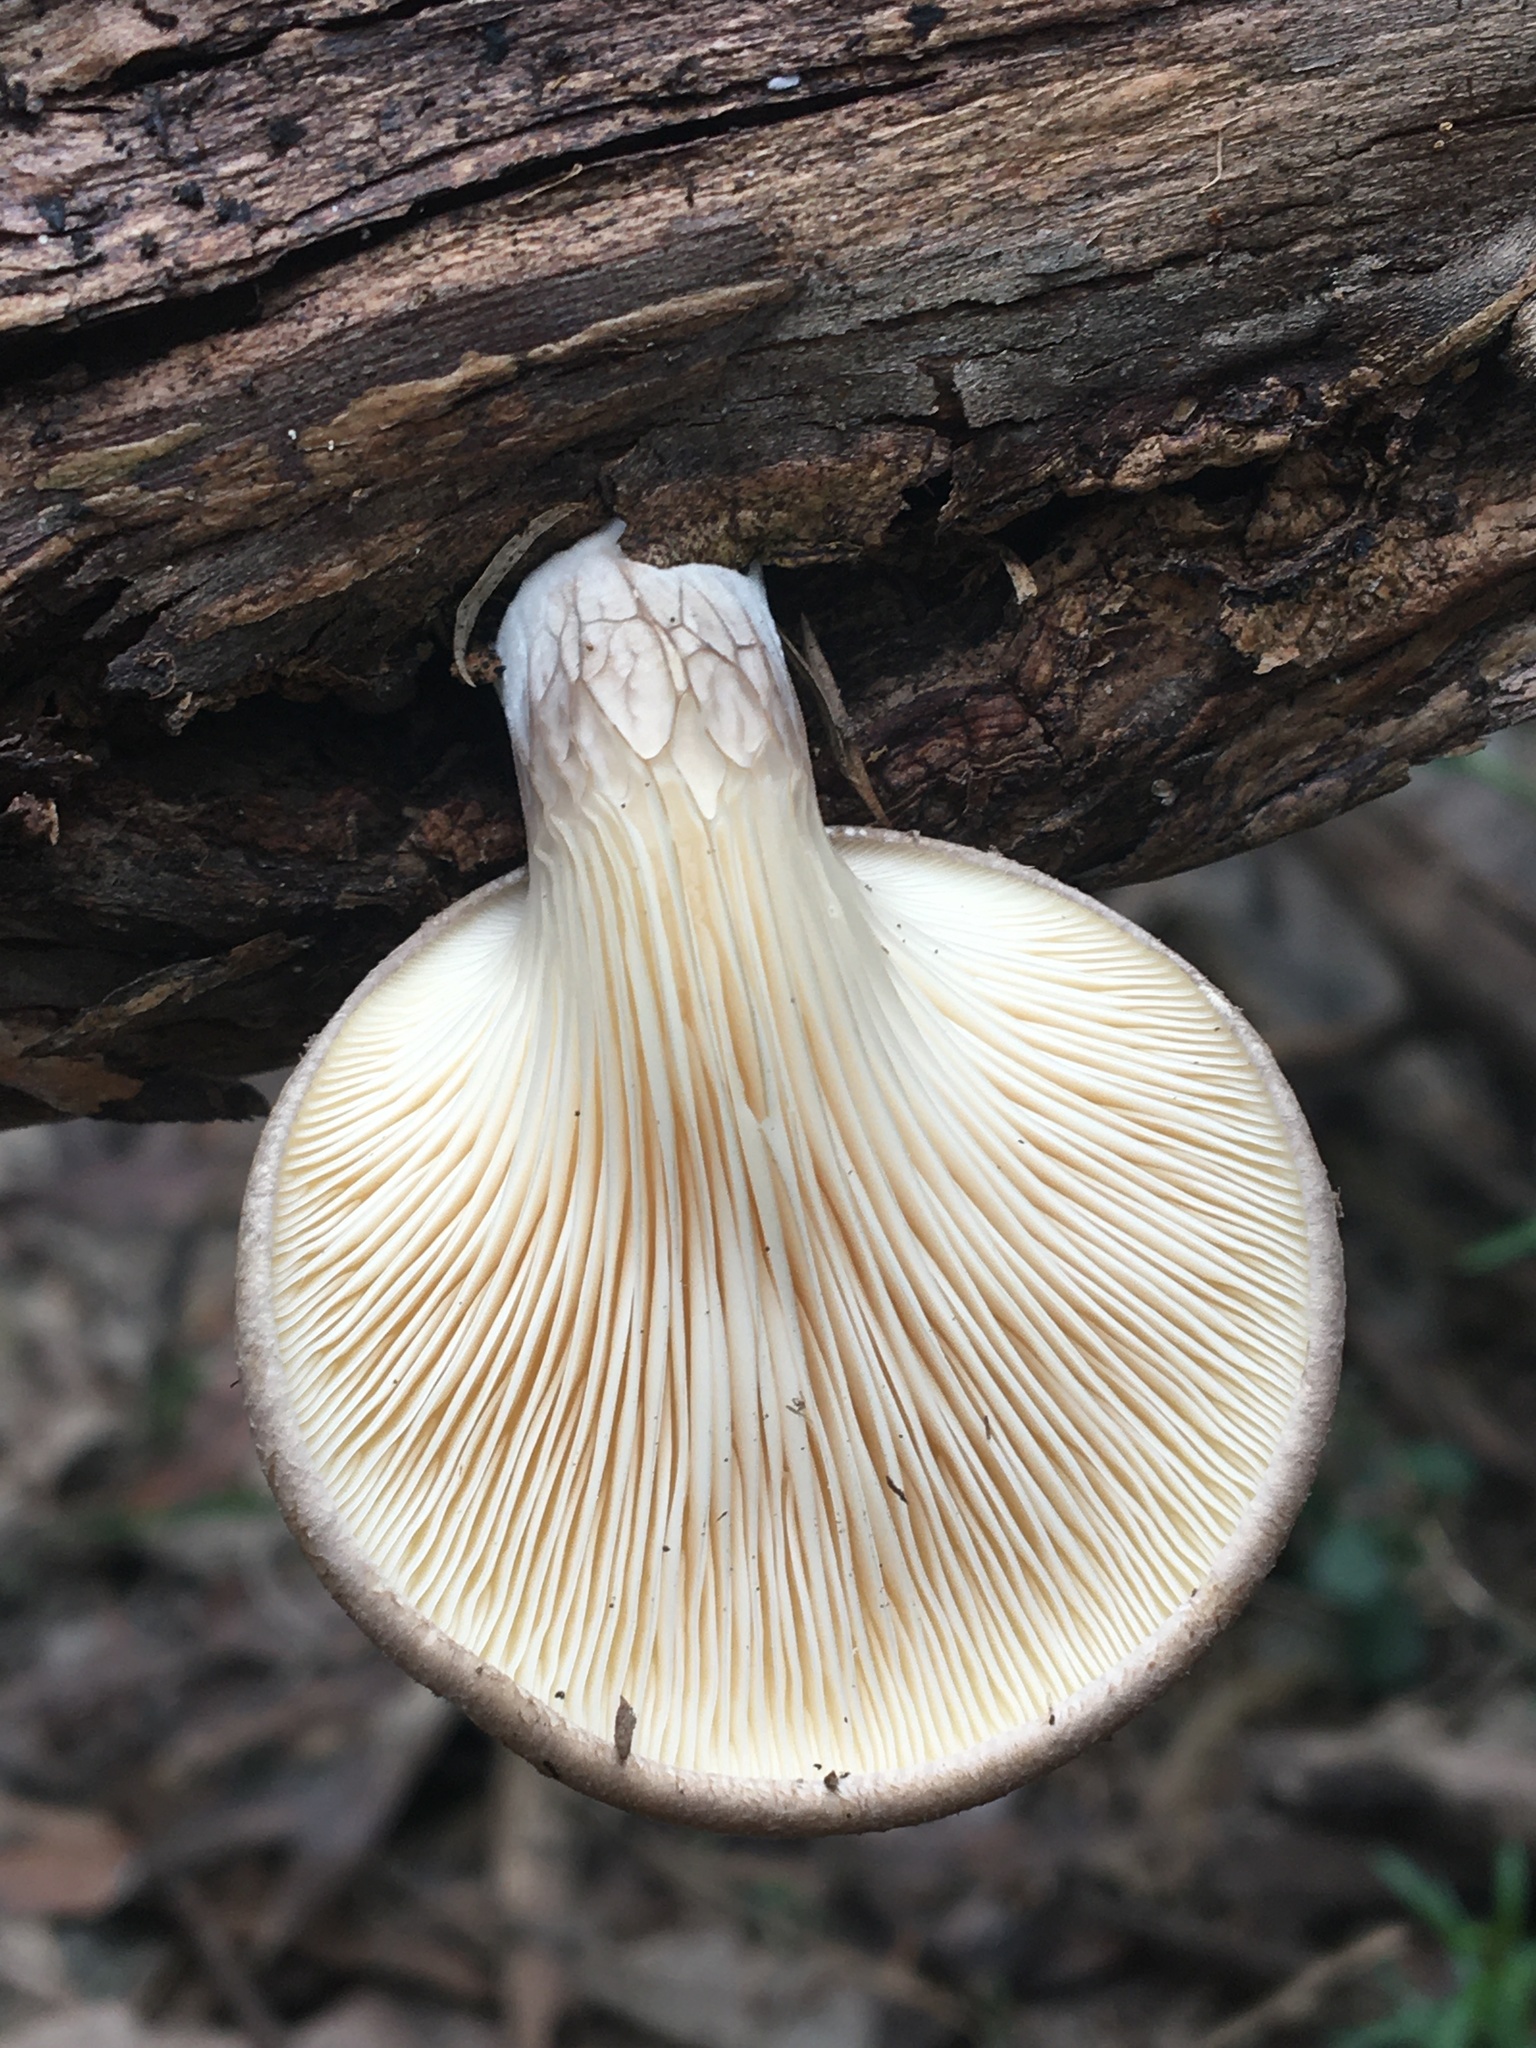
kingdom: Fungi
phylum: Basidiomycota
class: Agaricomycetes
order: Agaricales
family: Pleurotaceae
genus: Pleurotus
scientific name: Pleurotus australis
